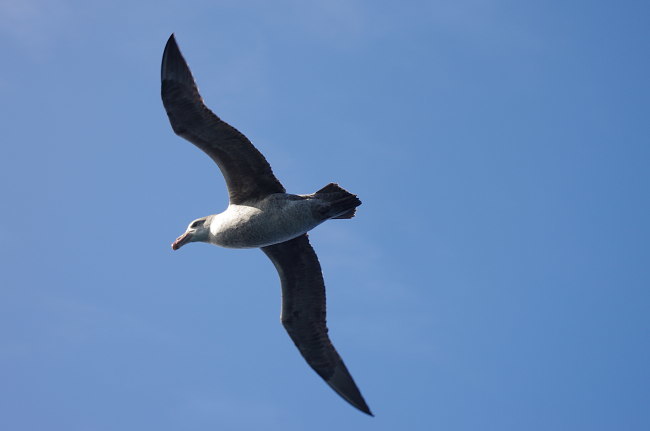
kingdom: Animalia
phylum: Chordata
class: Aves
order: Procellariiformes
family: Procellariidae
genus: Macronectes
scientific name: Macronectes halli
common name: Northern giant petrel
